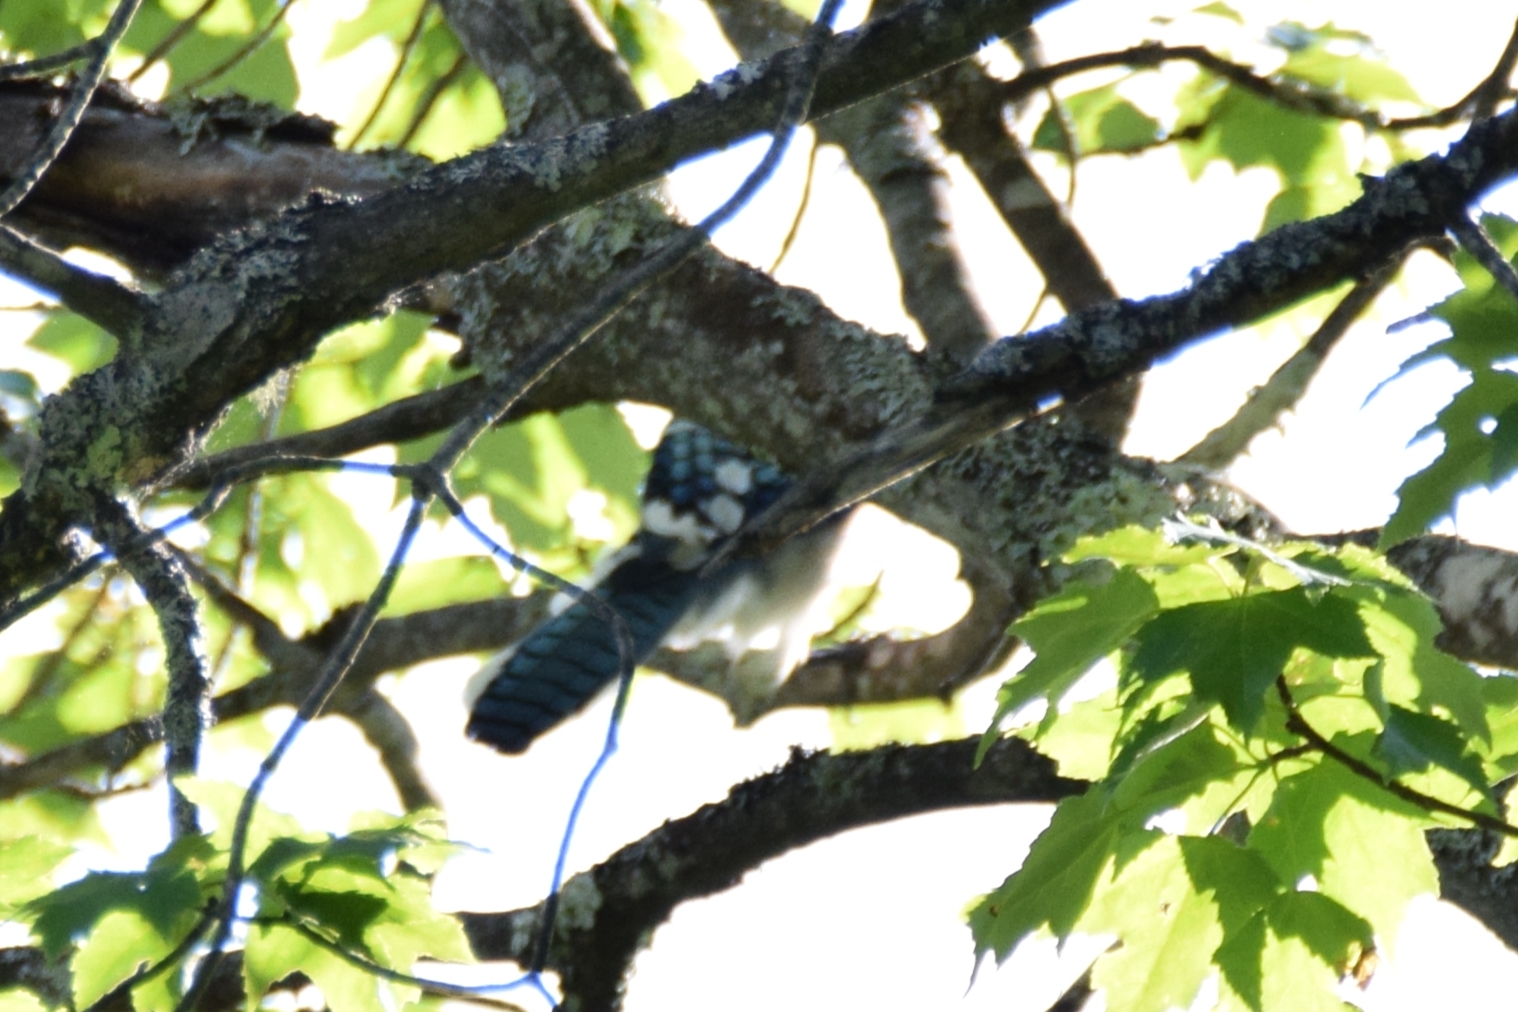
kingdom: Animalia
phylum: Chordata
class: Aves
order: Passeriformes
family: Corvidae
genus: Cyanocitta
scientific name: Cyanocitta cristata
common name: Blue jay
